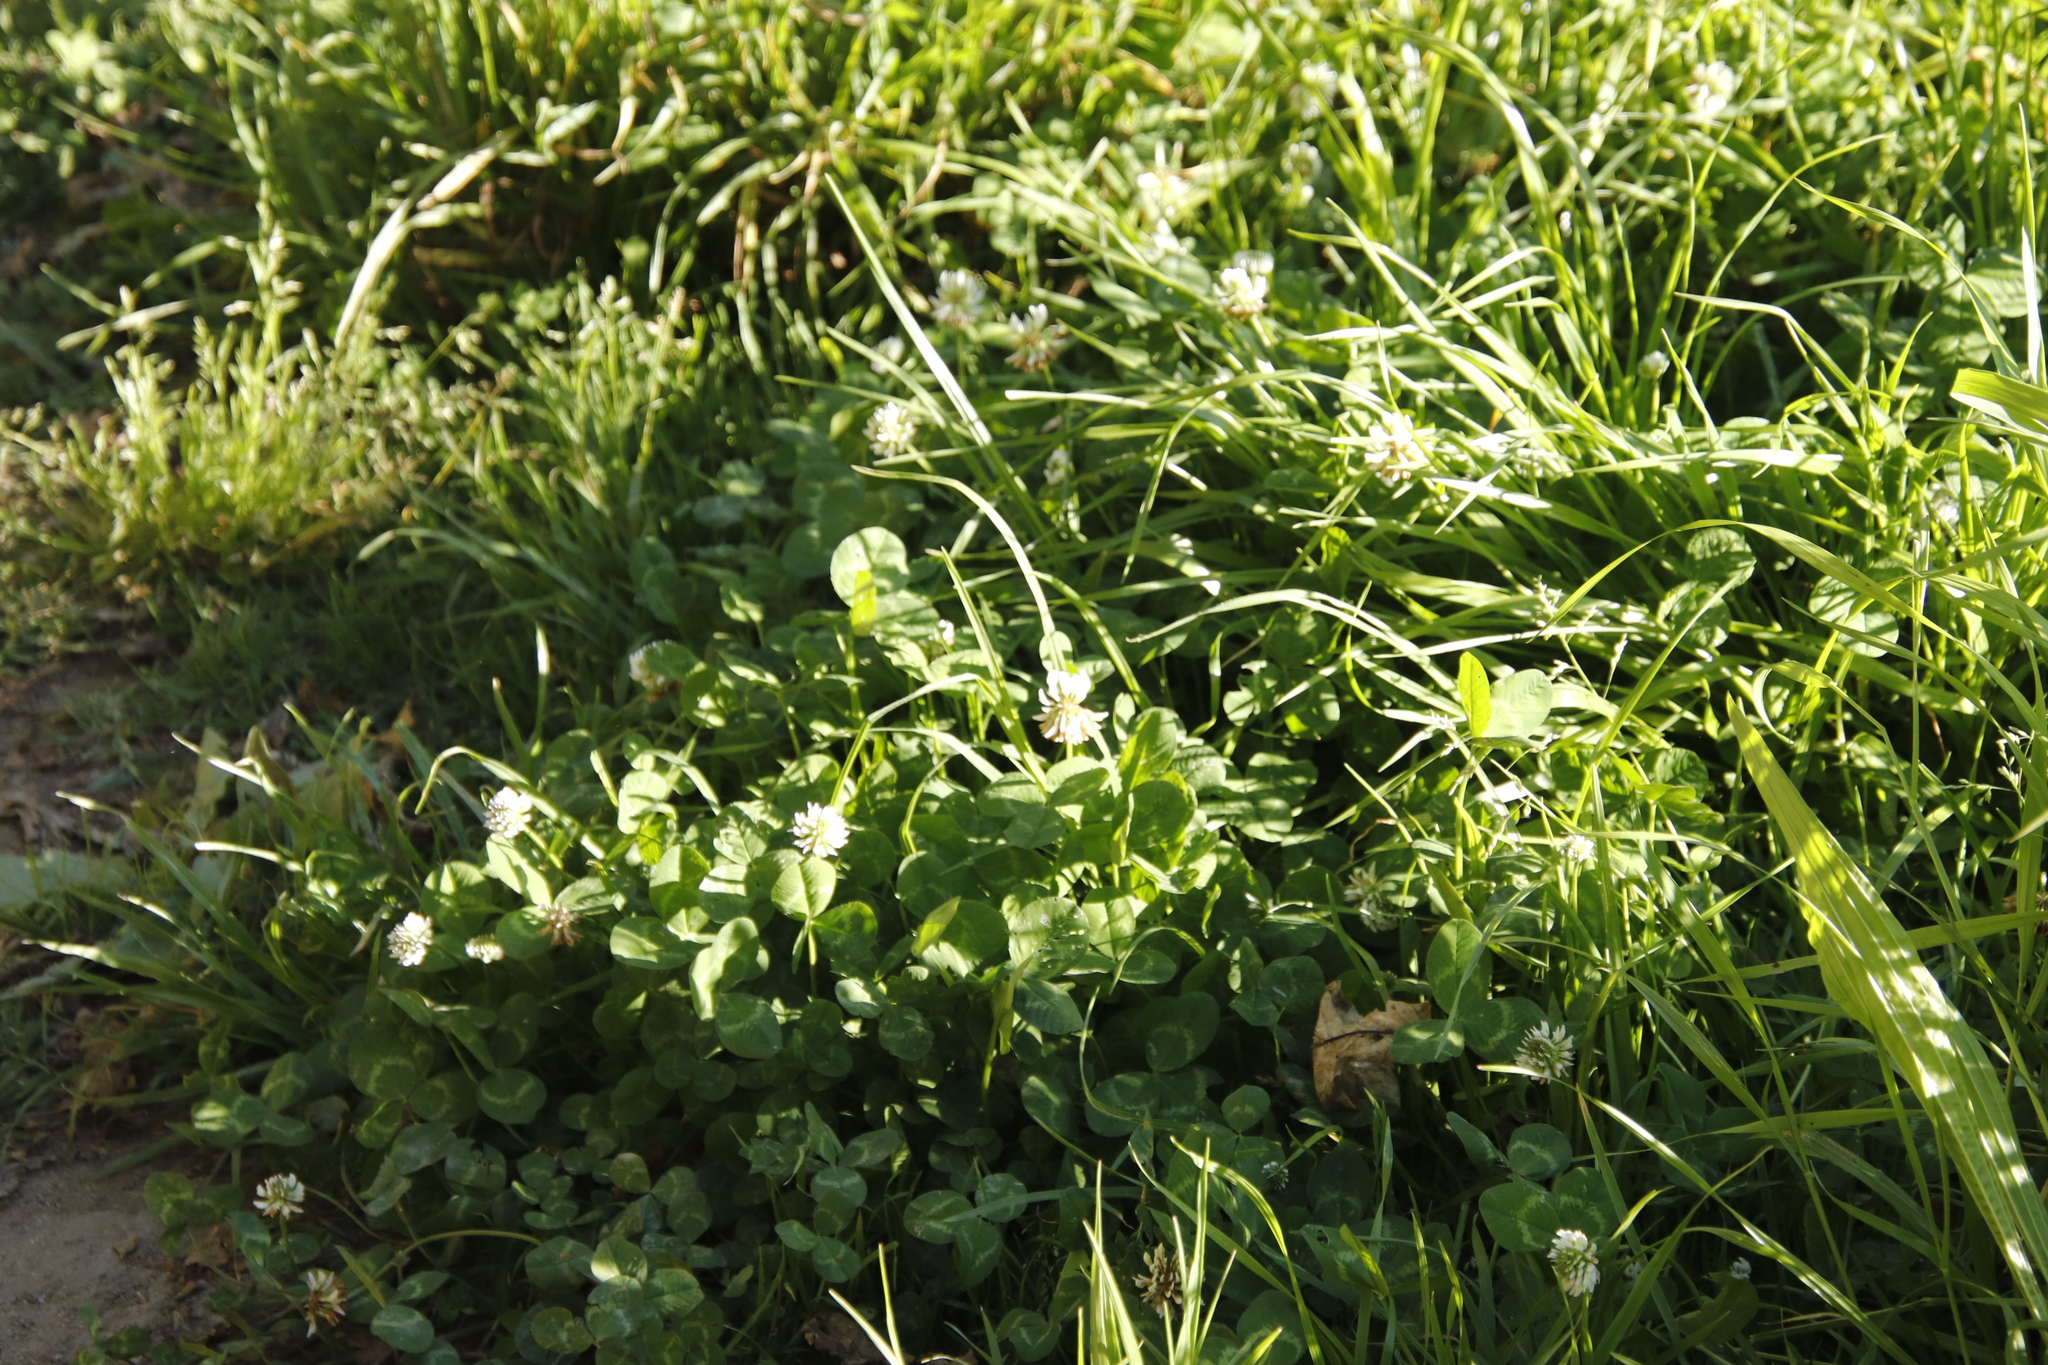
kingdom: Plantae
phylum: Tracheophyta
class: Magnoliopsida
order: Fabales
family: Fabaceae
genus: Trifolium
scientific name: Trifolium repens
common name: White clover
